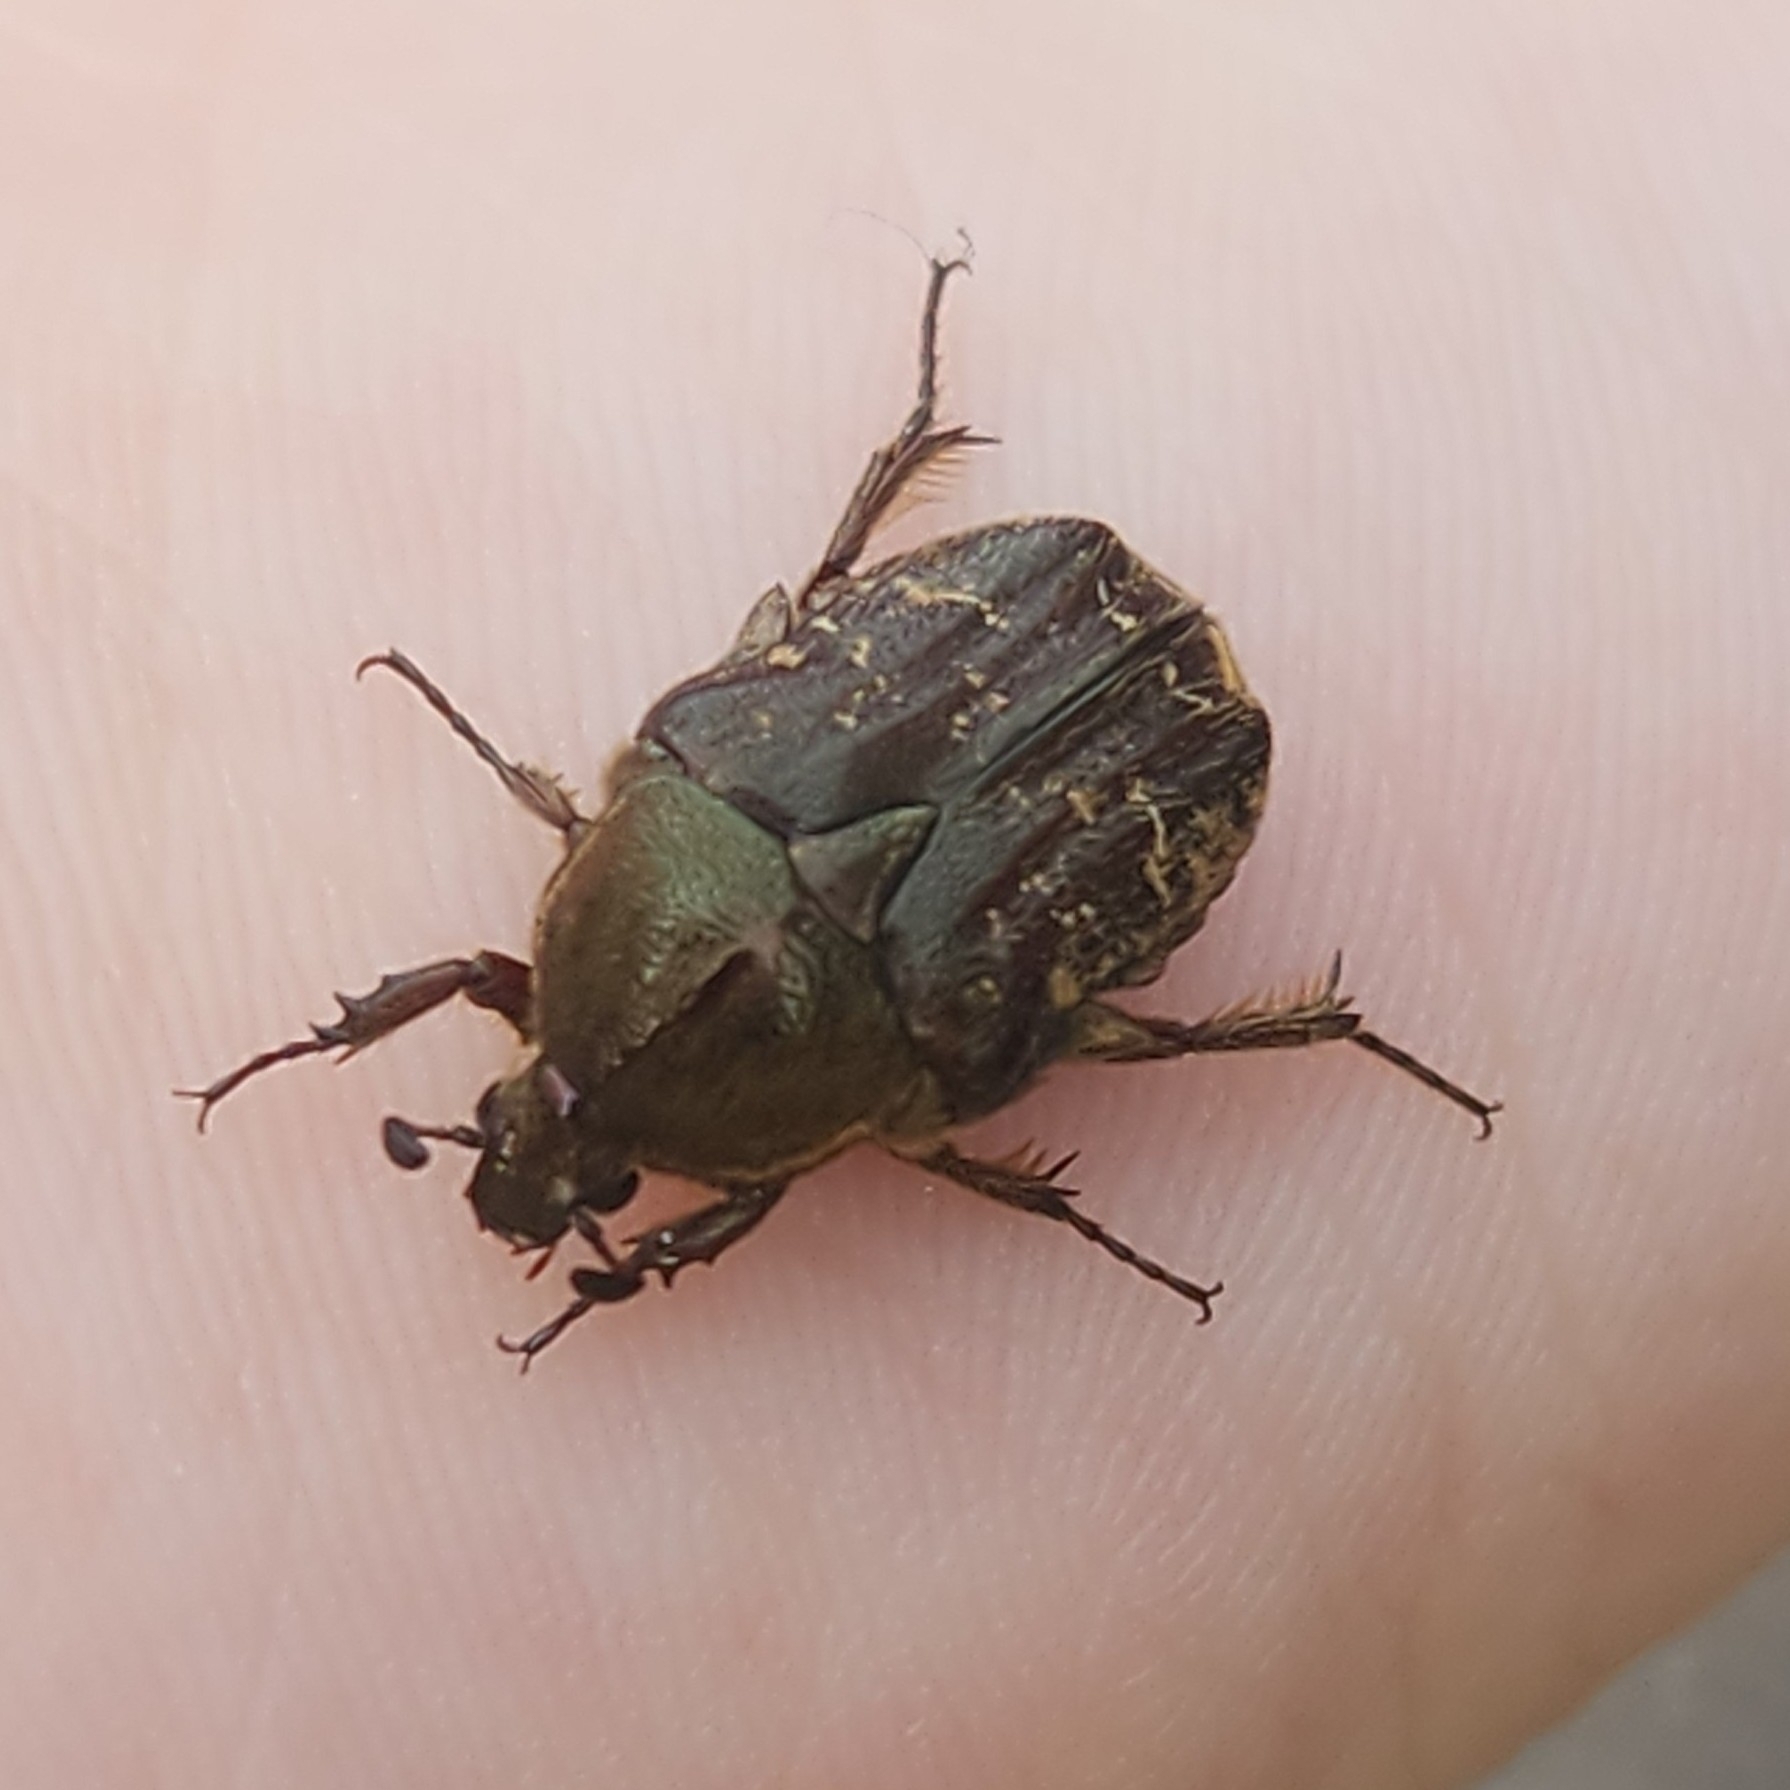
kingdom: Animalia
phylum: Arthropoda
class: Insecta
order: Coleoptera
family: Scarabaeidae
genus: Euphoria
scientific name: Euphoria sepulcralis
